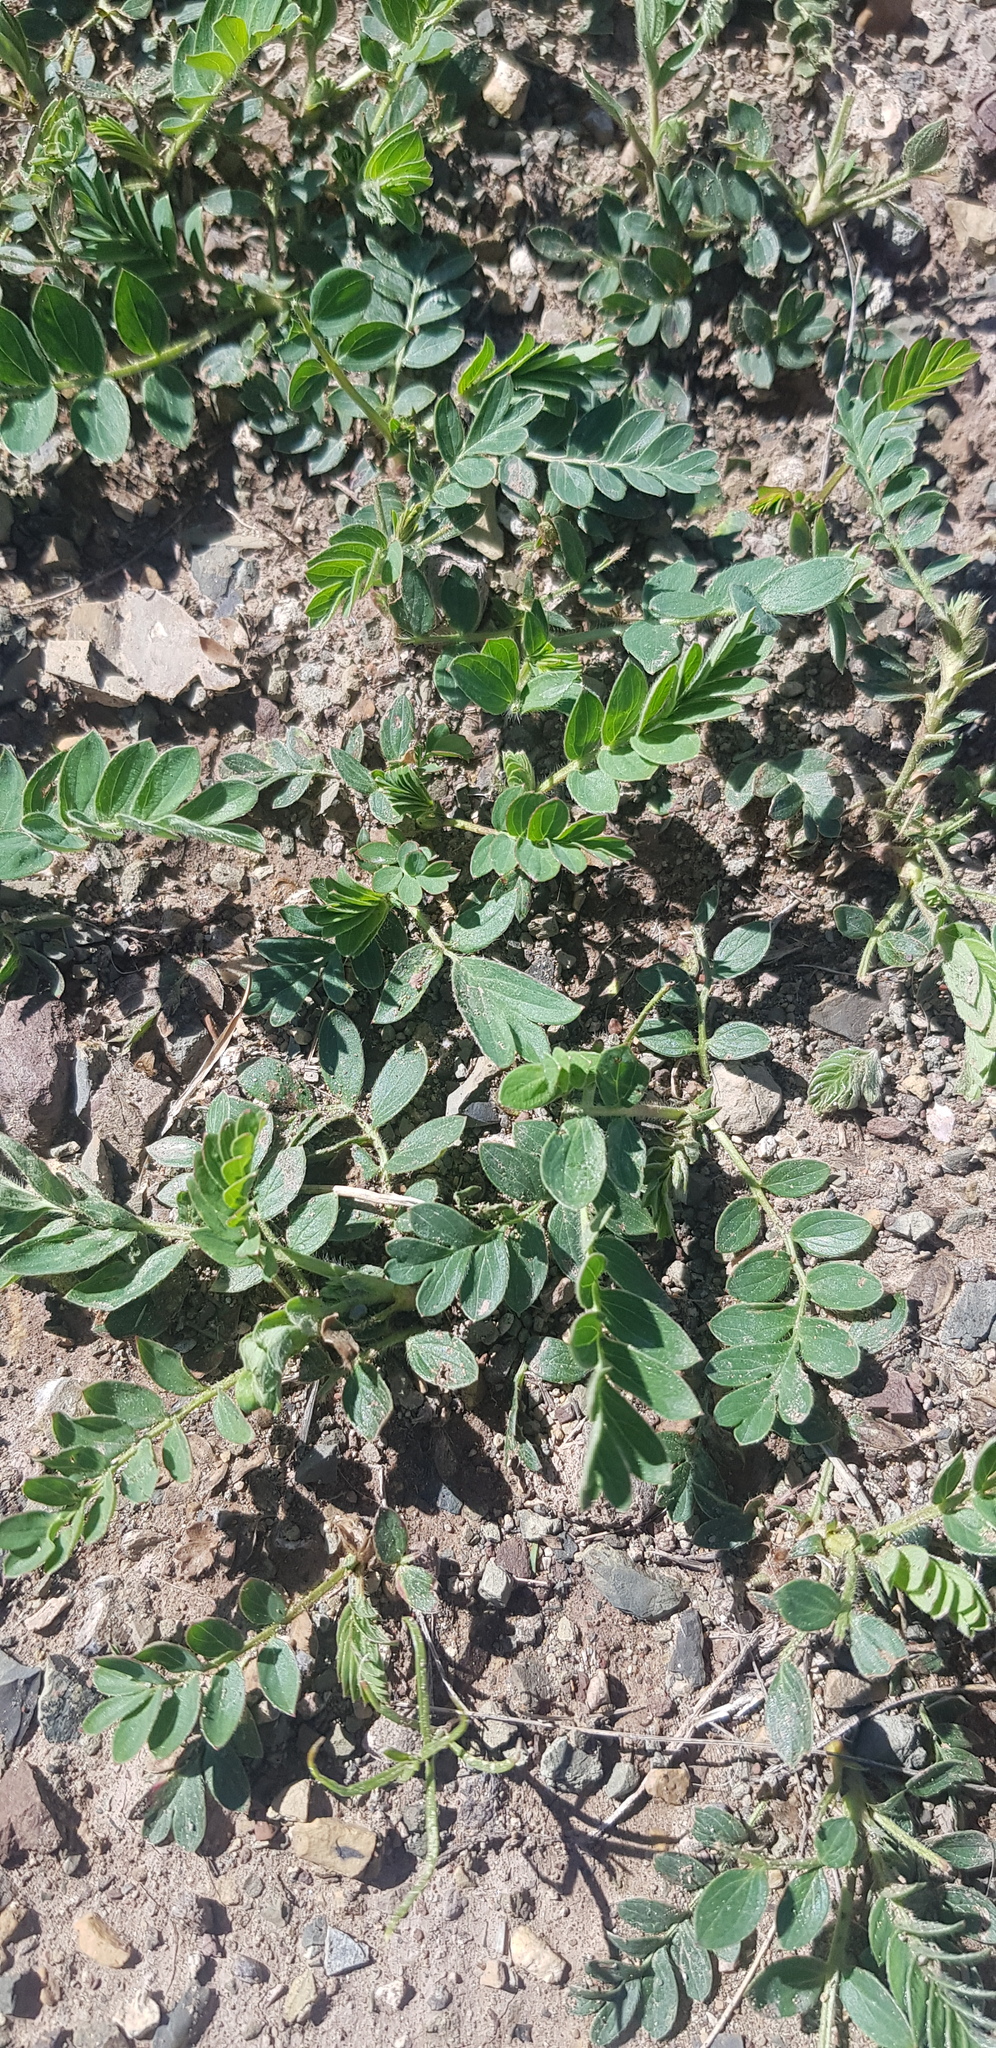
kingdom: Plantae
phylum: Tracheophyta
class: Magnoliopsida
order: Rosales
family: Rosaceae
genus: Sibbaldianthe
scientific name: Sibbaldianthe bifurca
